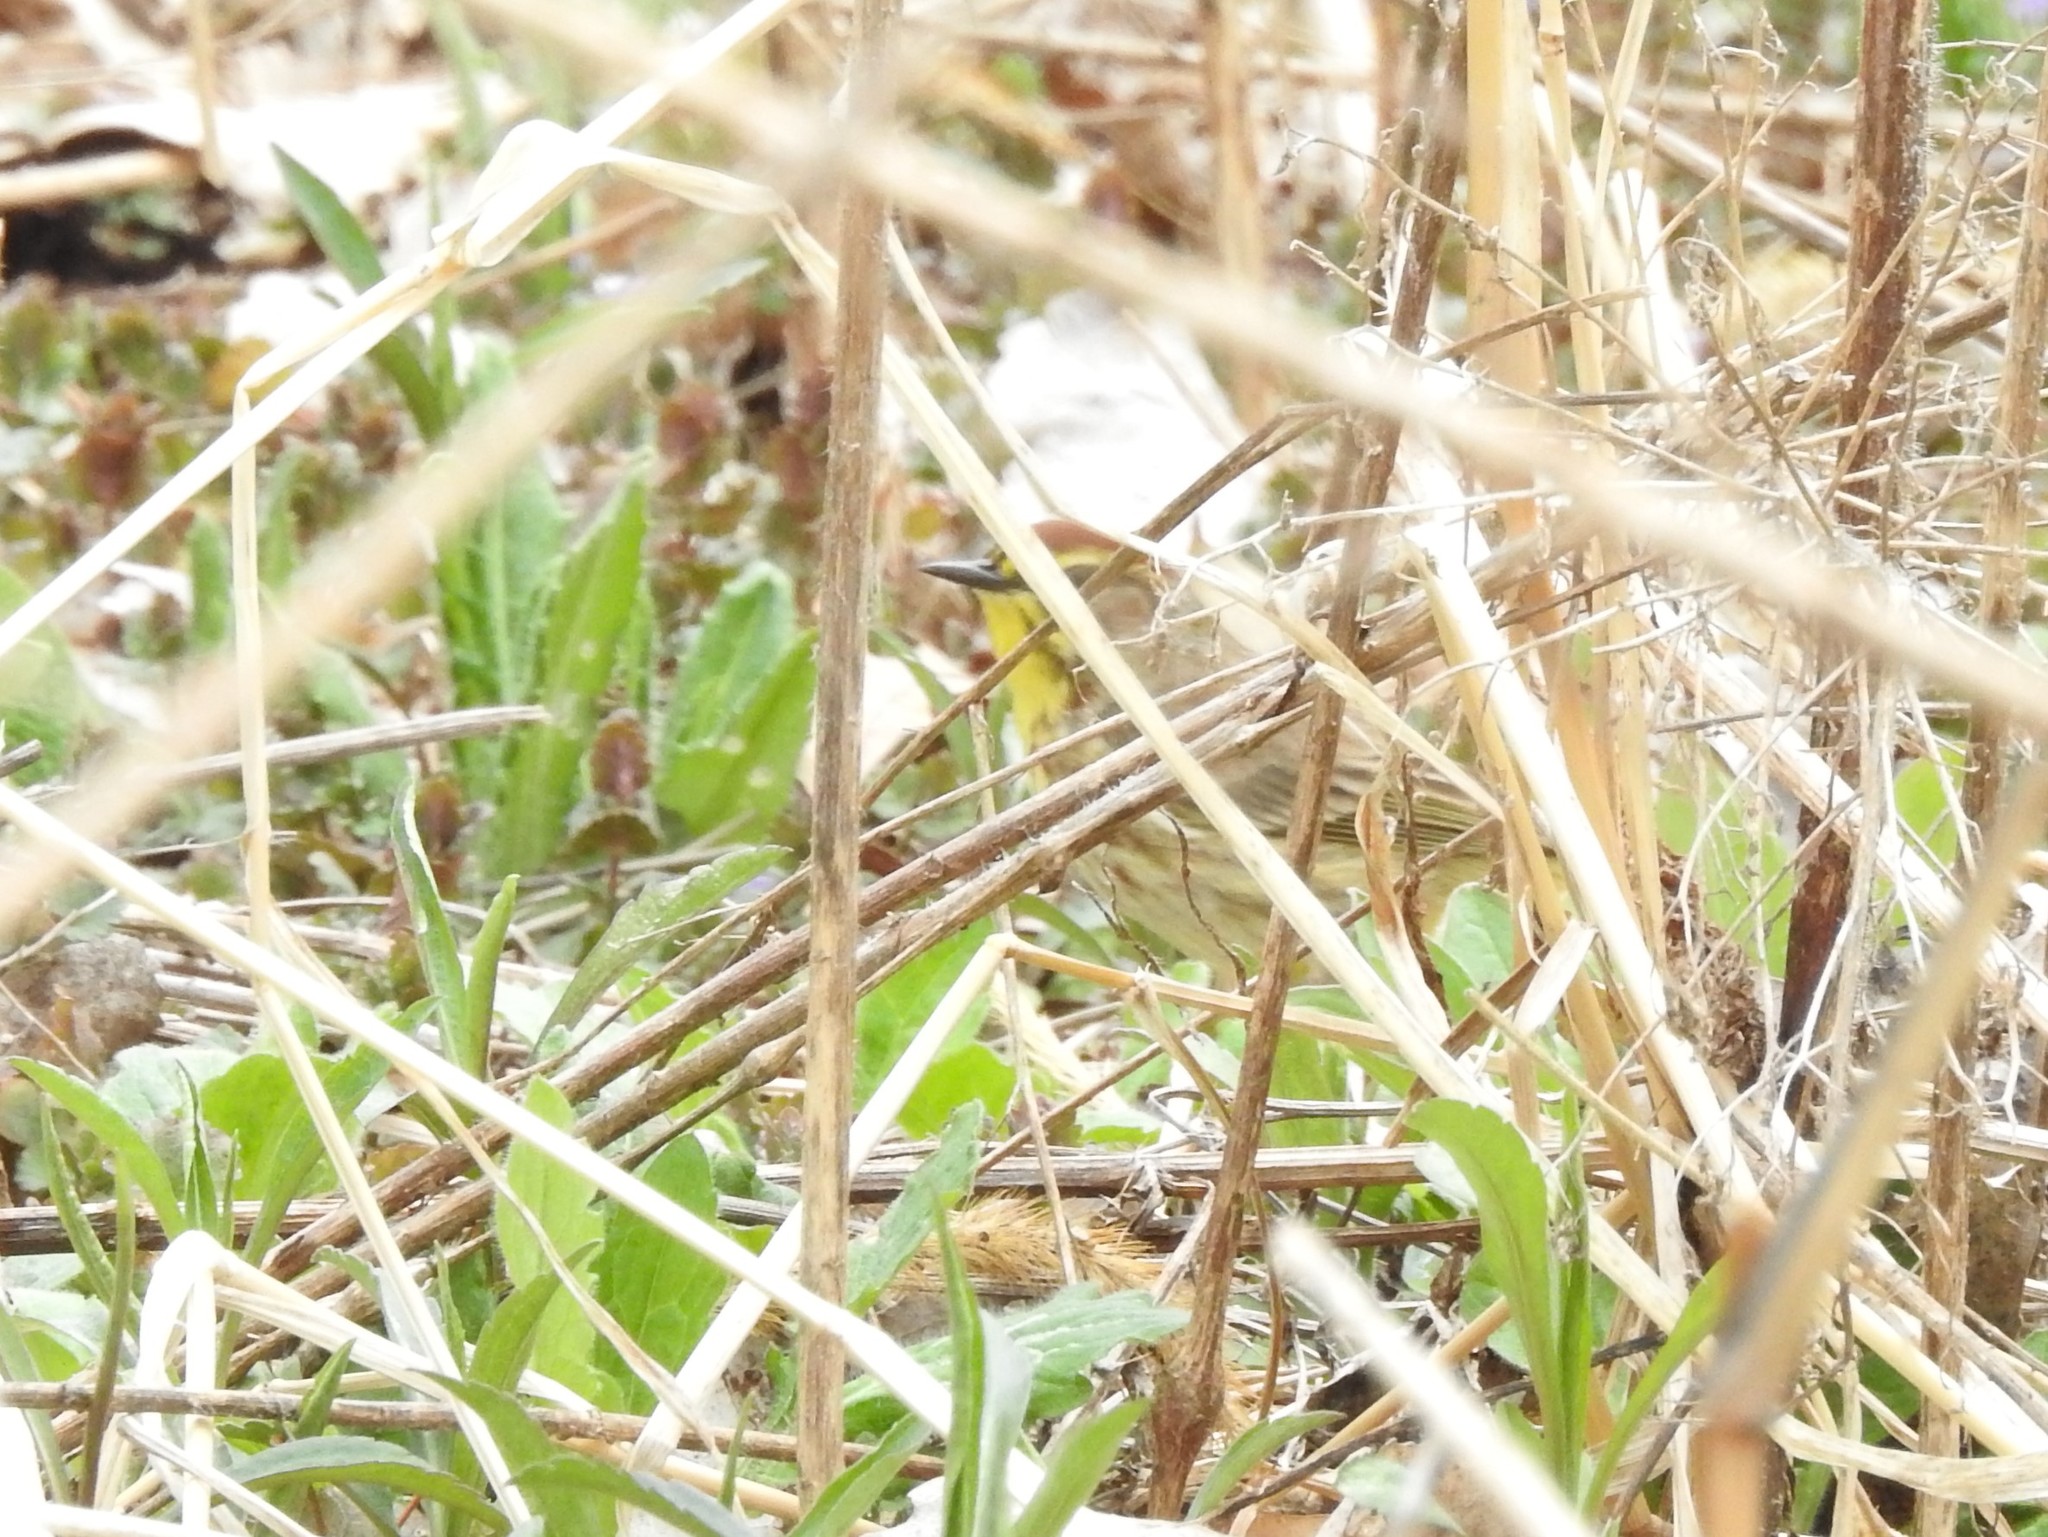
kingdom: Animalia
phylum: Chordata
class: Aves
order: Passeriformes
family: Parulidae
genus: Setophaga
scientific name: Setophaga palmarum
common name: Palm warbler
